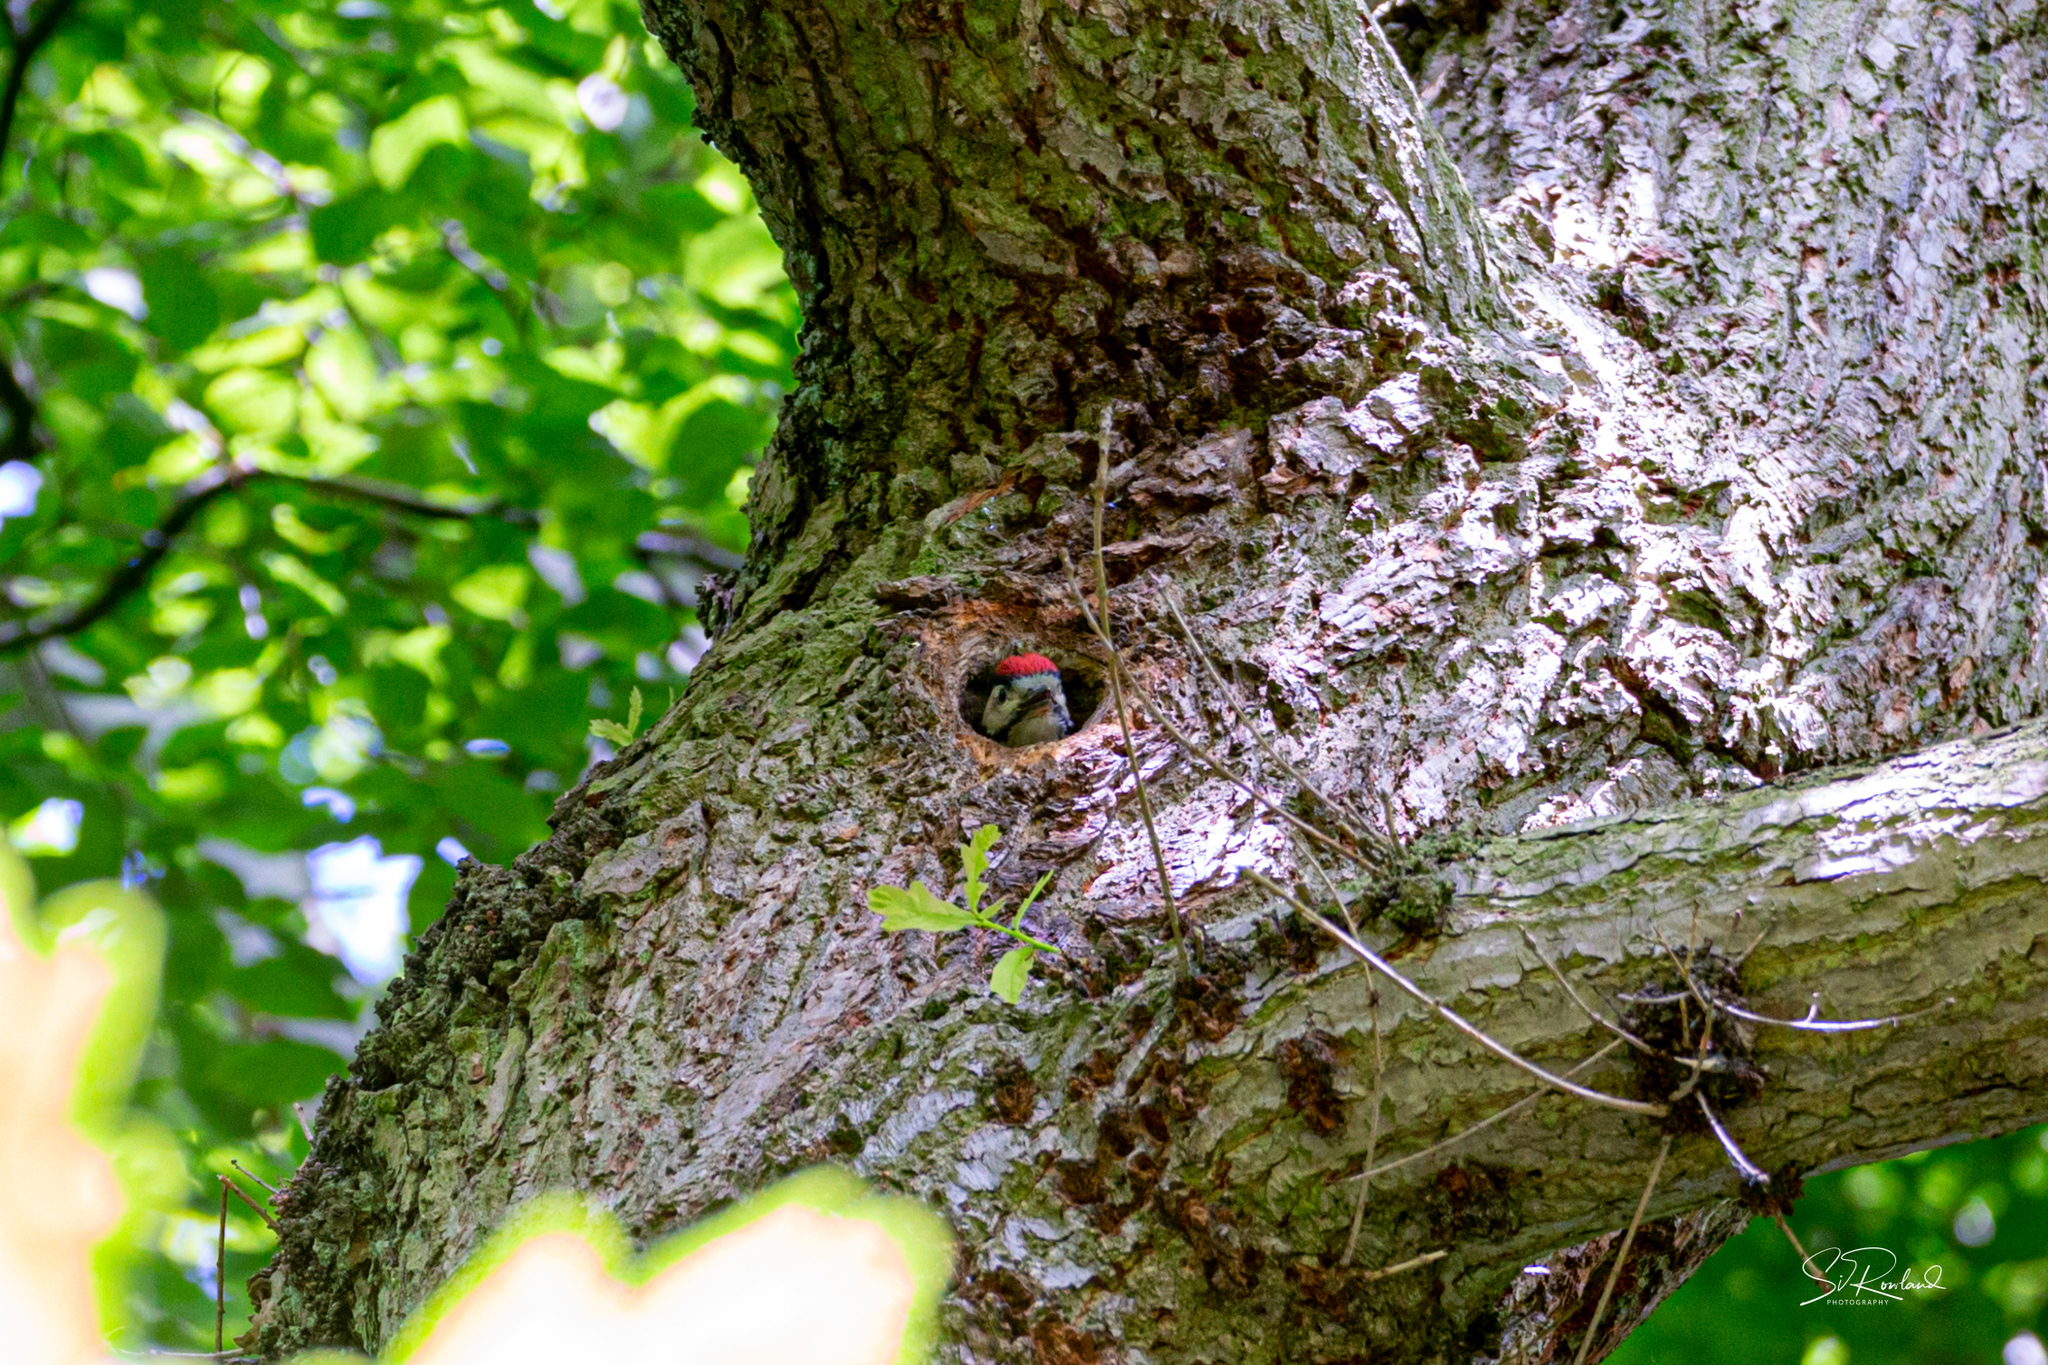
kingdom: Animalia
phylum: Chordata
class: Aves
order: Piciformes
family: Picidae
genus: Dendrocopos
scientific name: Dendrocopos major
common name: Great spotted woodpecker
